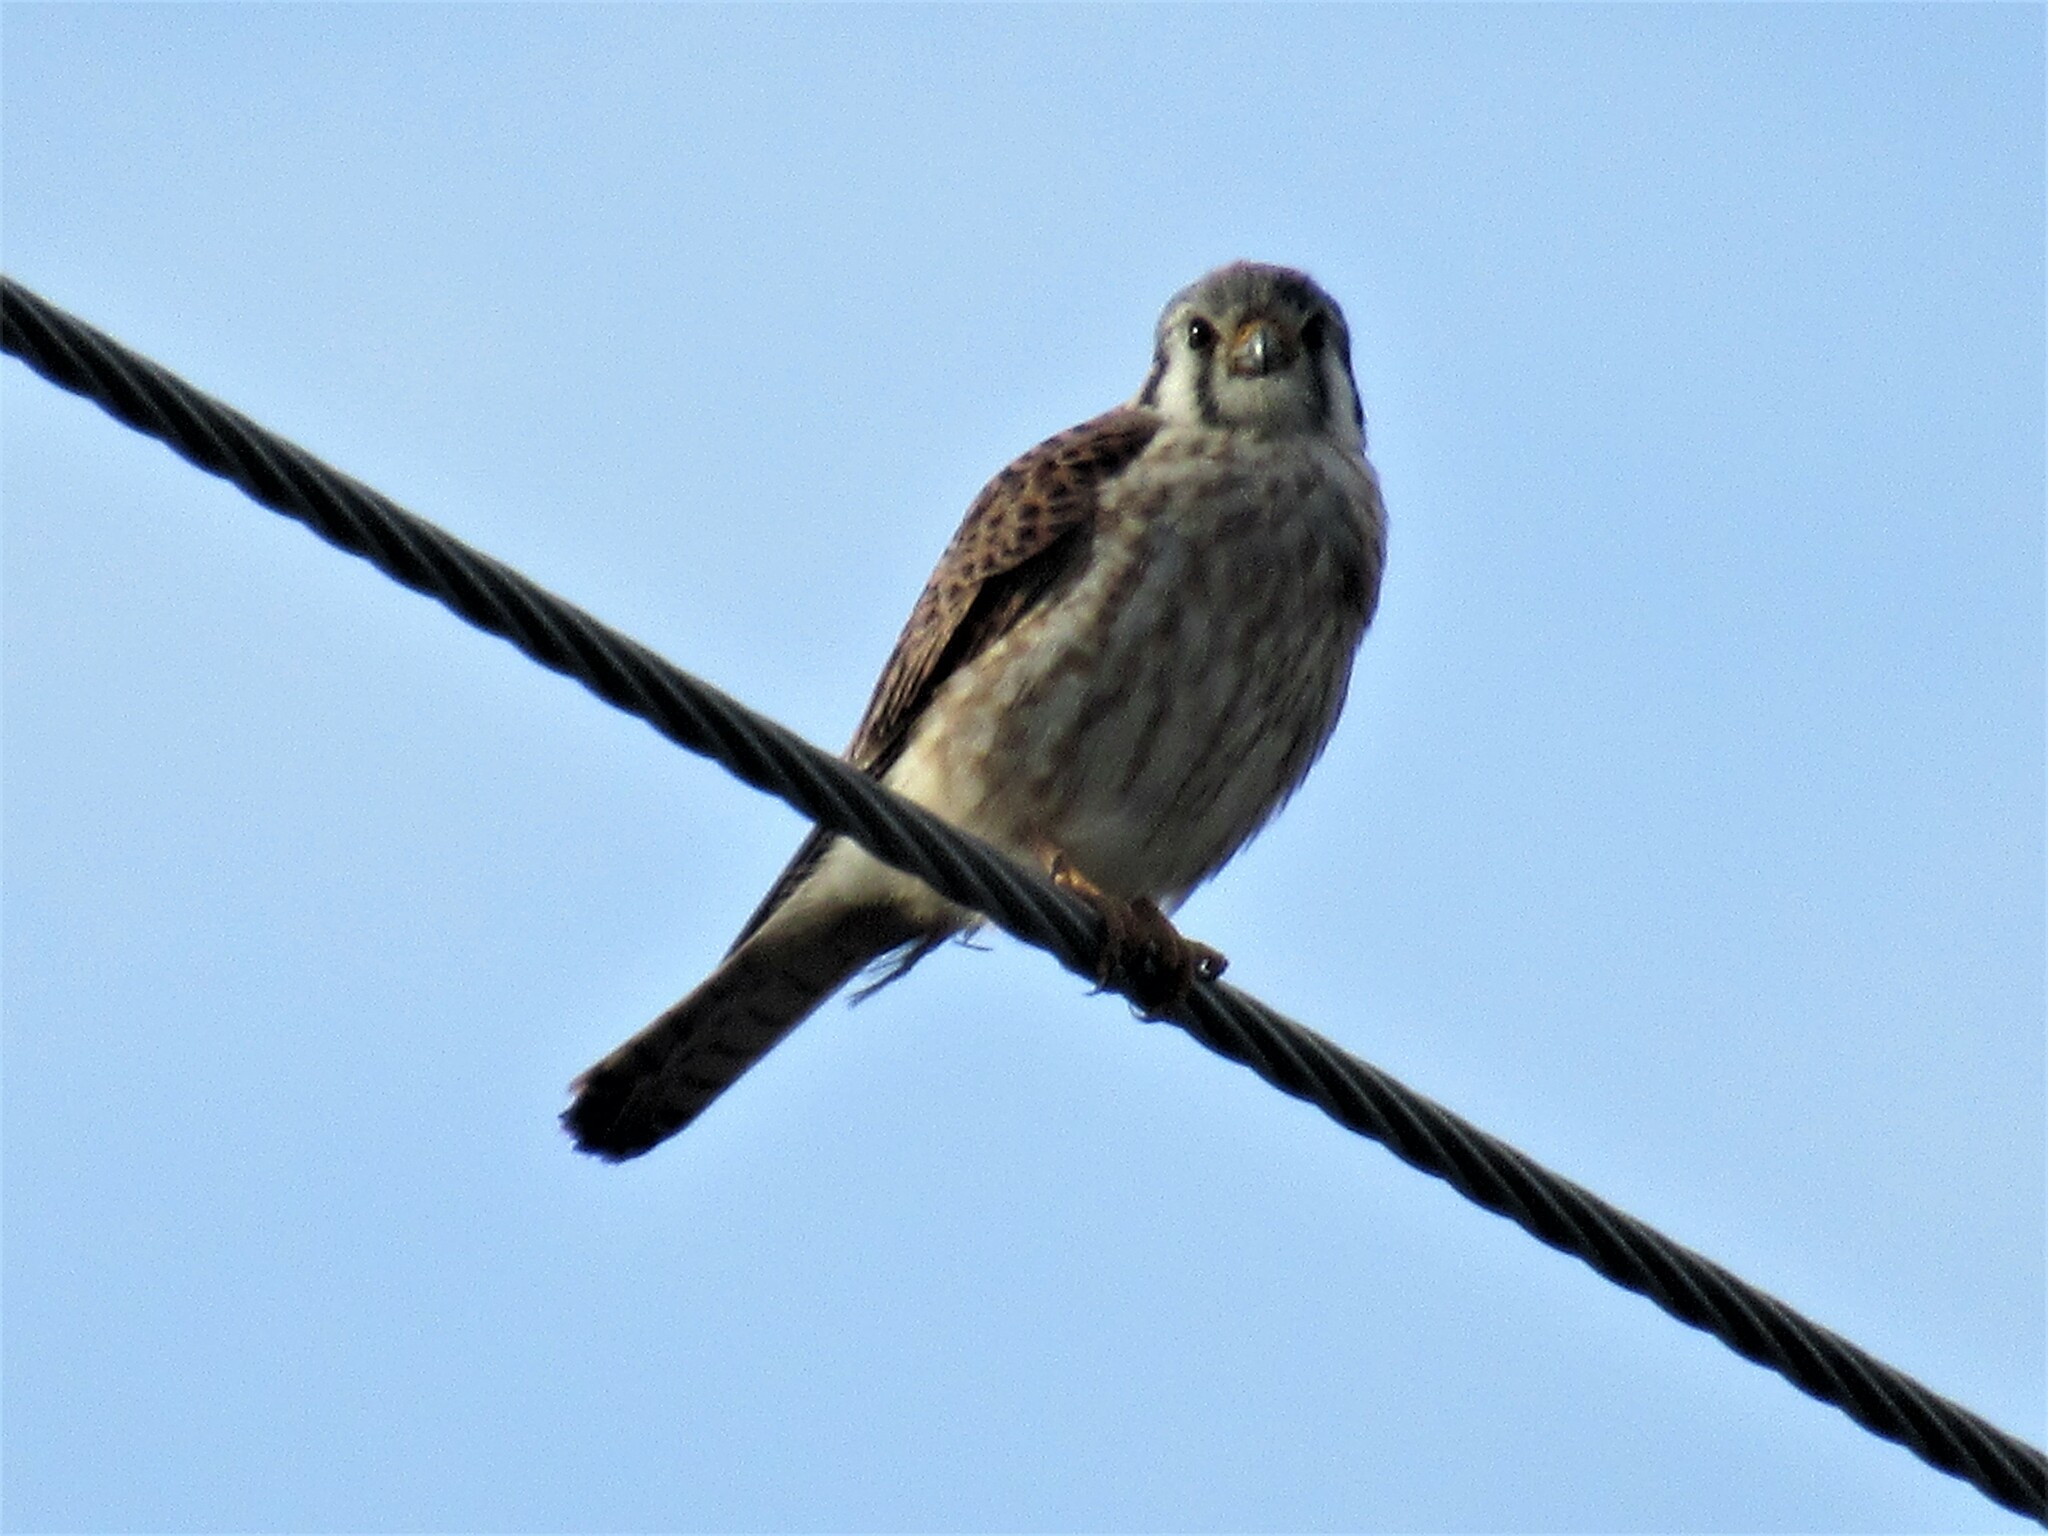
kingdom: Animalia
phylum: Chordata
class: Aves
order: Falconiformes
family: Falconidae
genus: Falco
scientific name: Falco sparverius
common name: American kestrel
